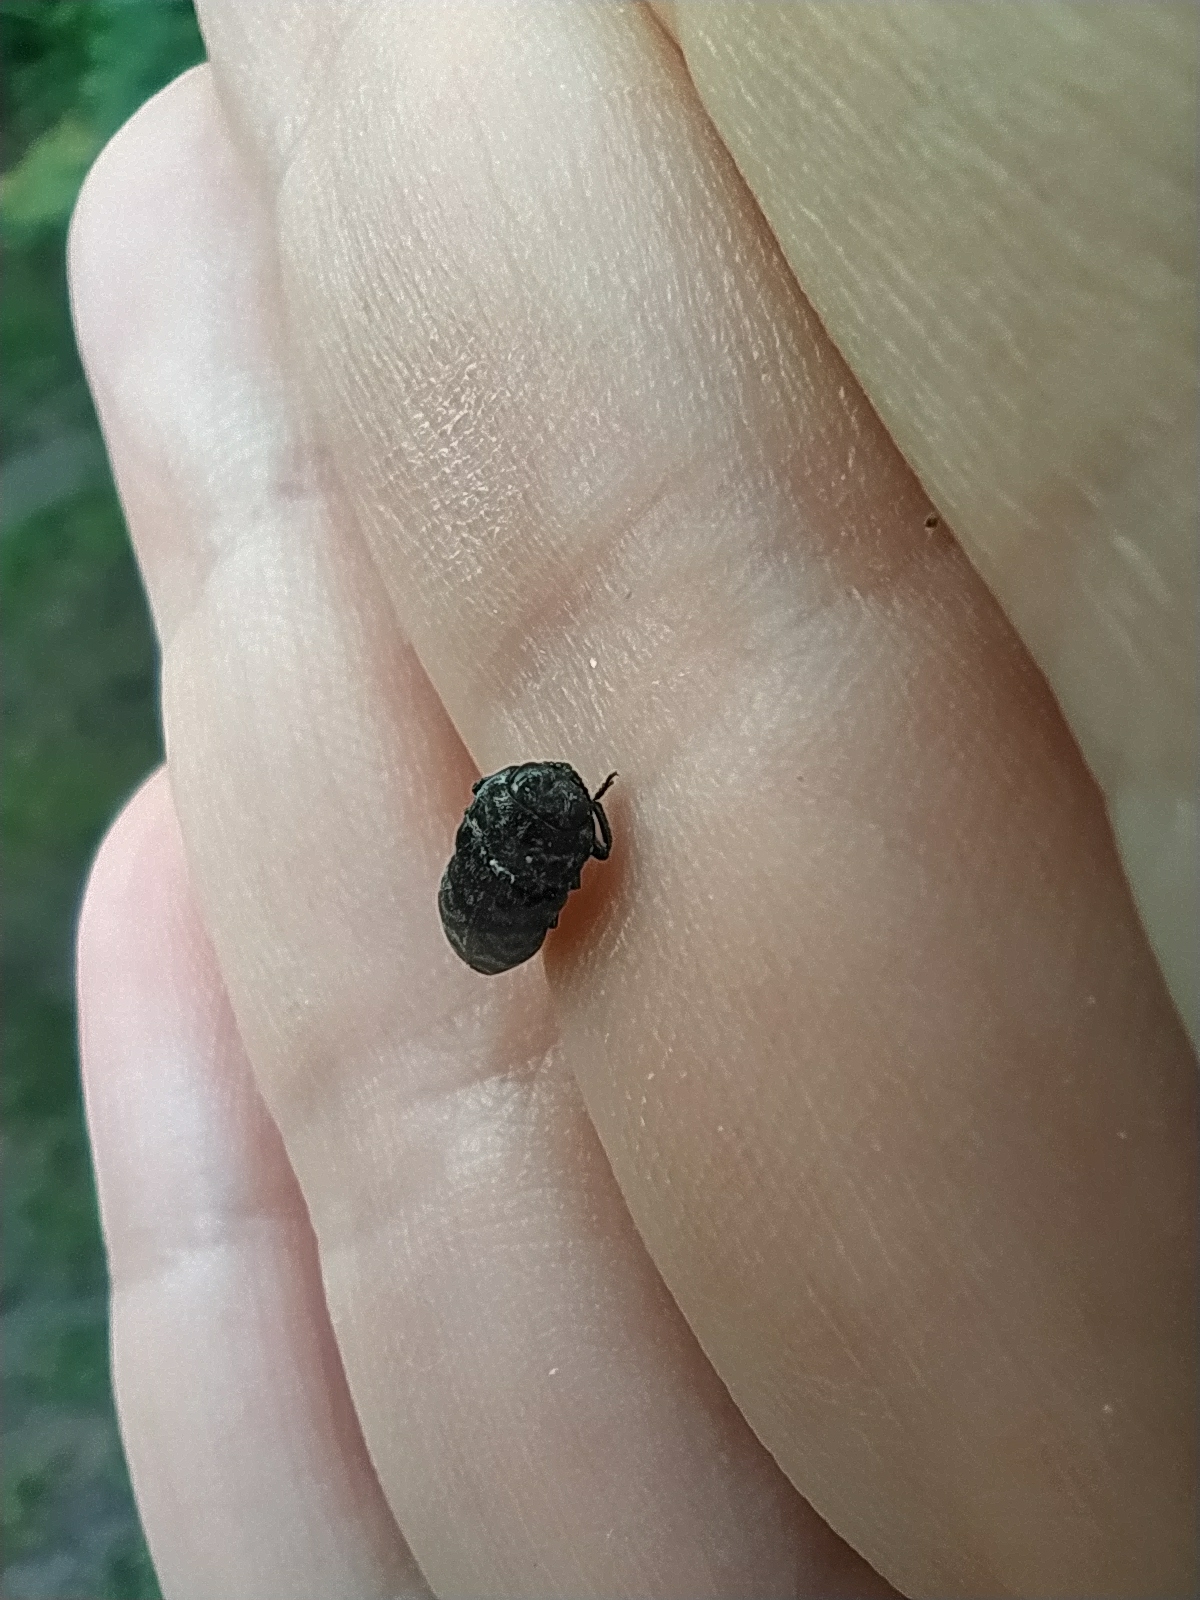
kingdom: Animalia
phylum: Arthropoda
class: Insecta
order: Coleoptera
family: Buprestidae
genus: Coraebus
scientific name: Coraebus rubi
